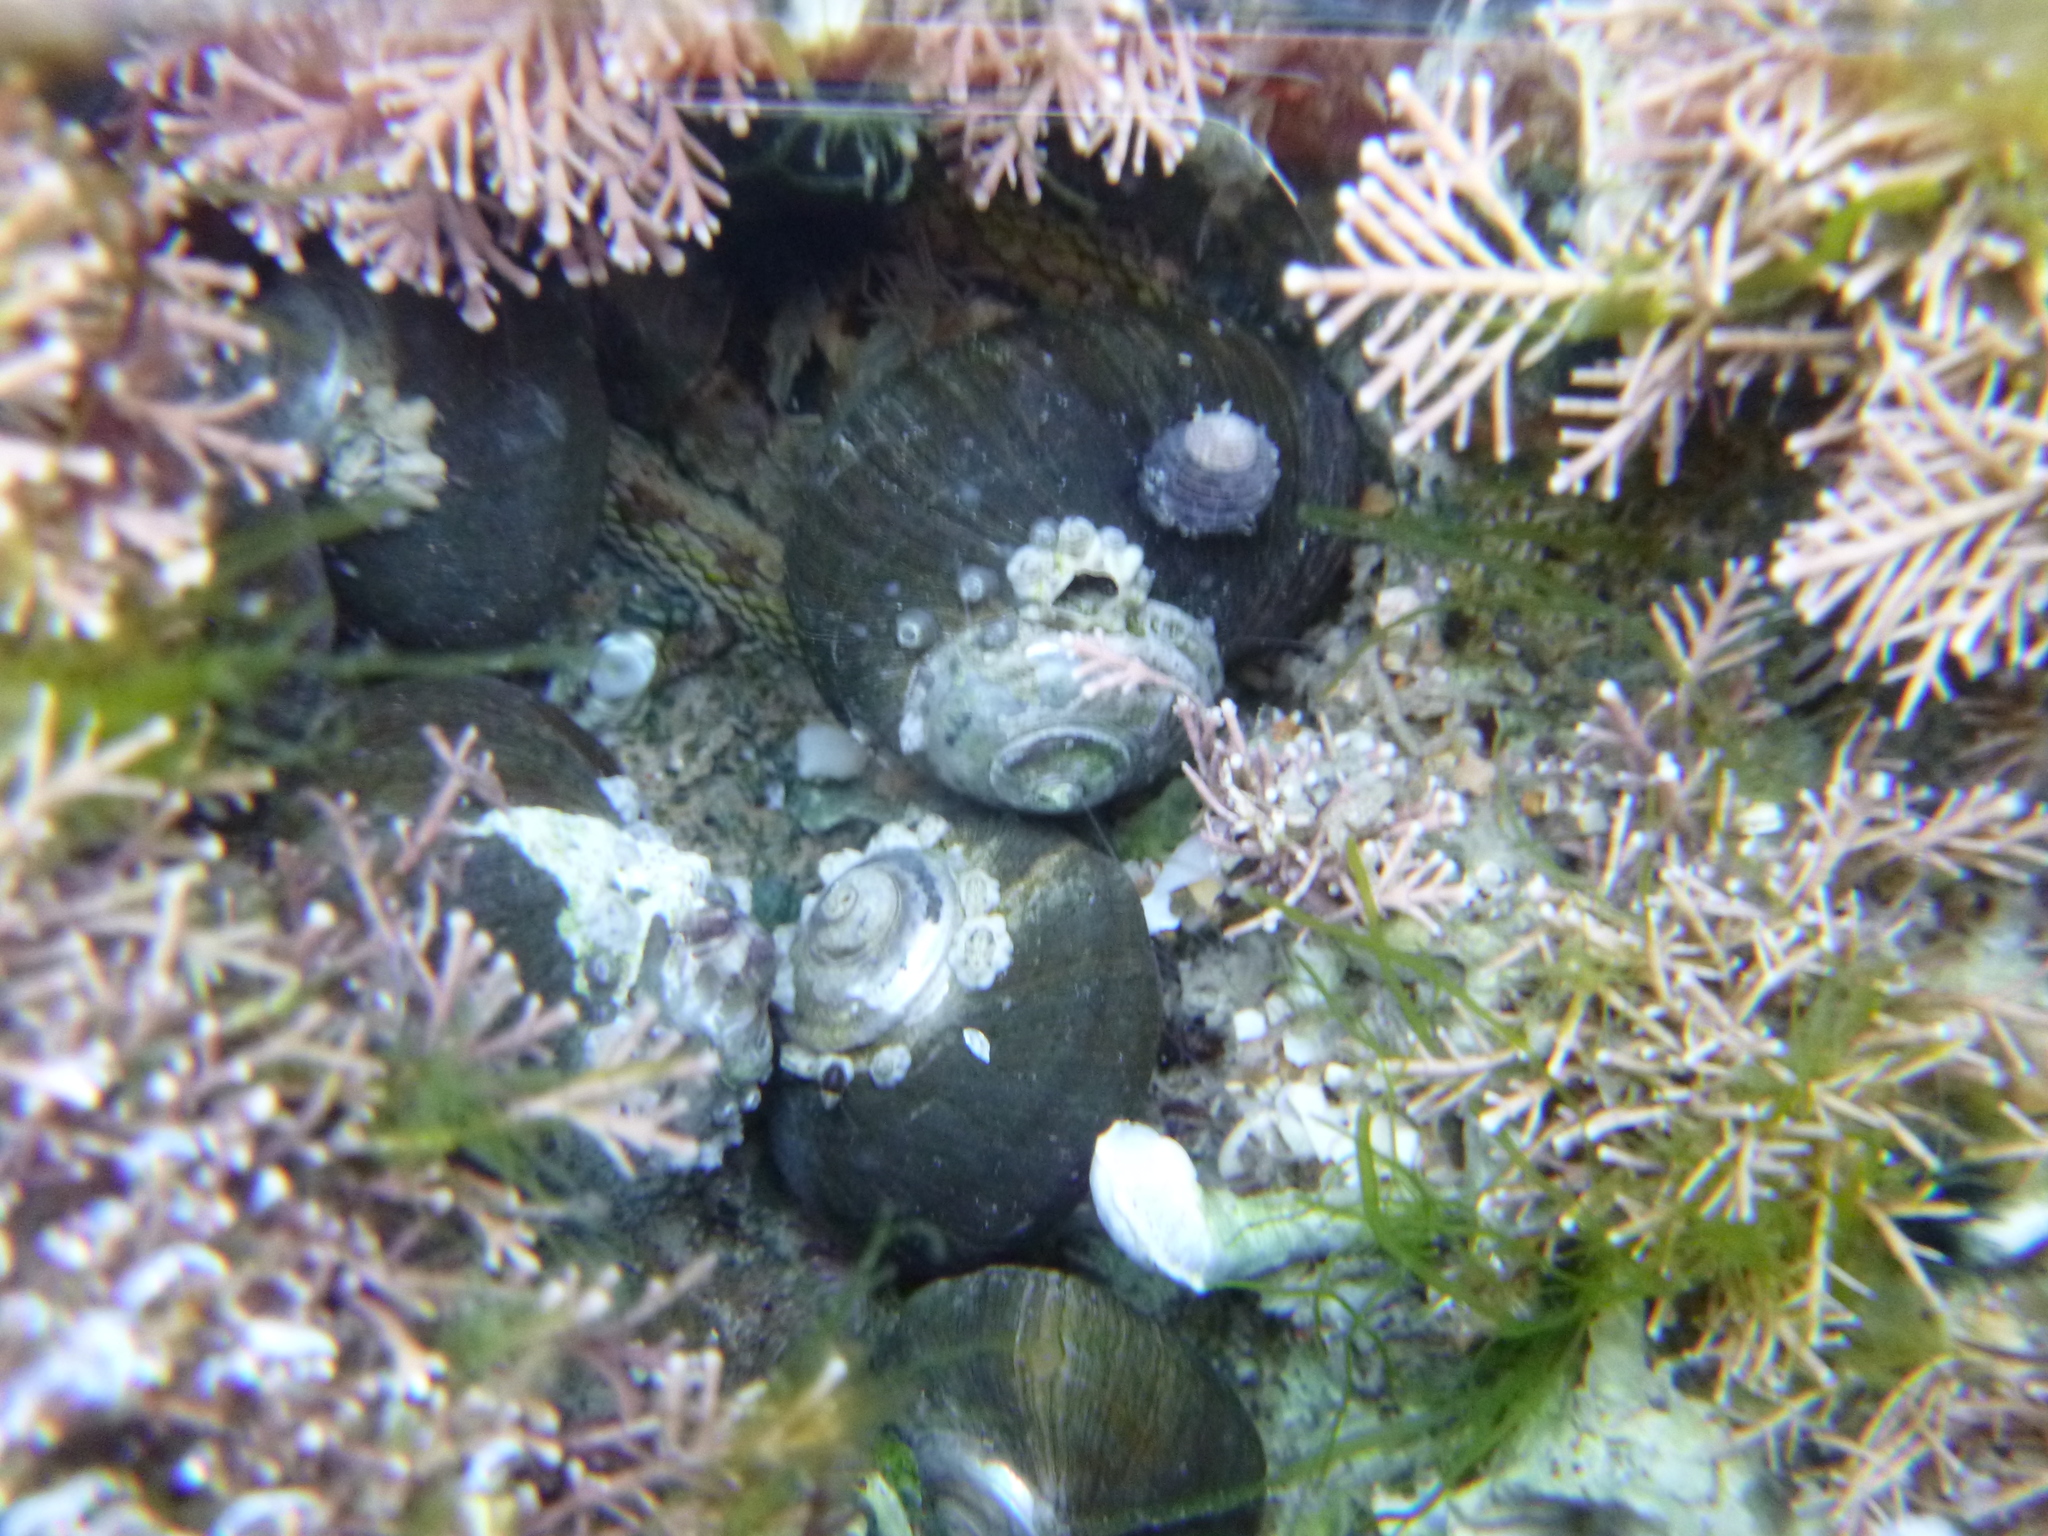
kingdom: Animalia
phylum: Mollusca
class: Gastropoda
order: Trochida
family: Turbinidae
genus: Lunella
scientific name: Lunella smaragda
